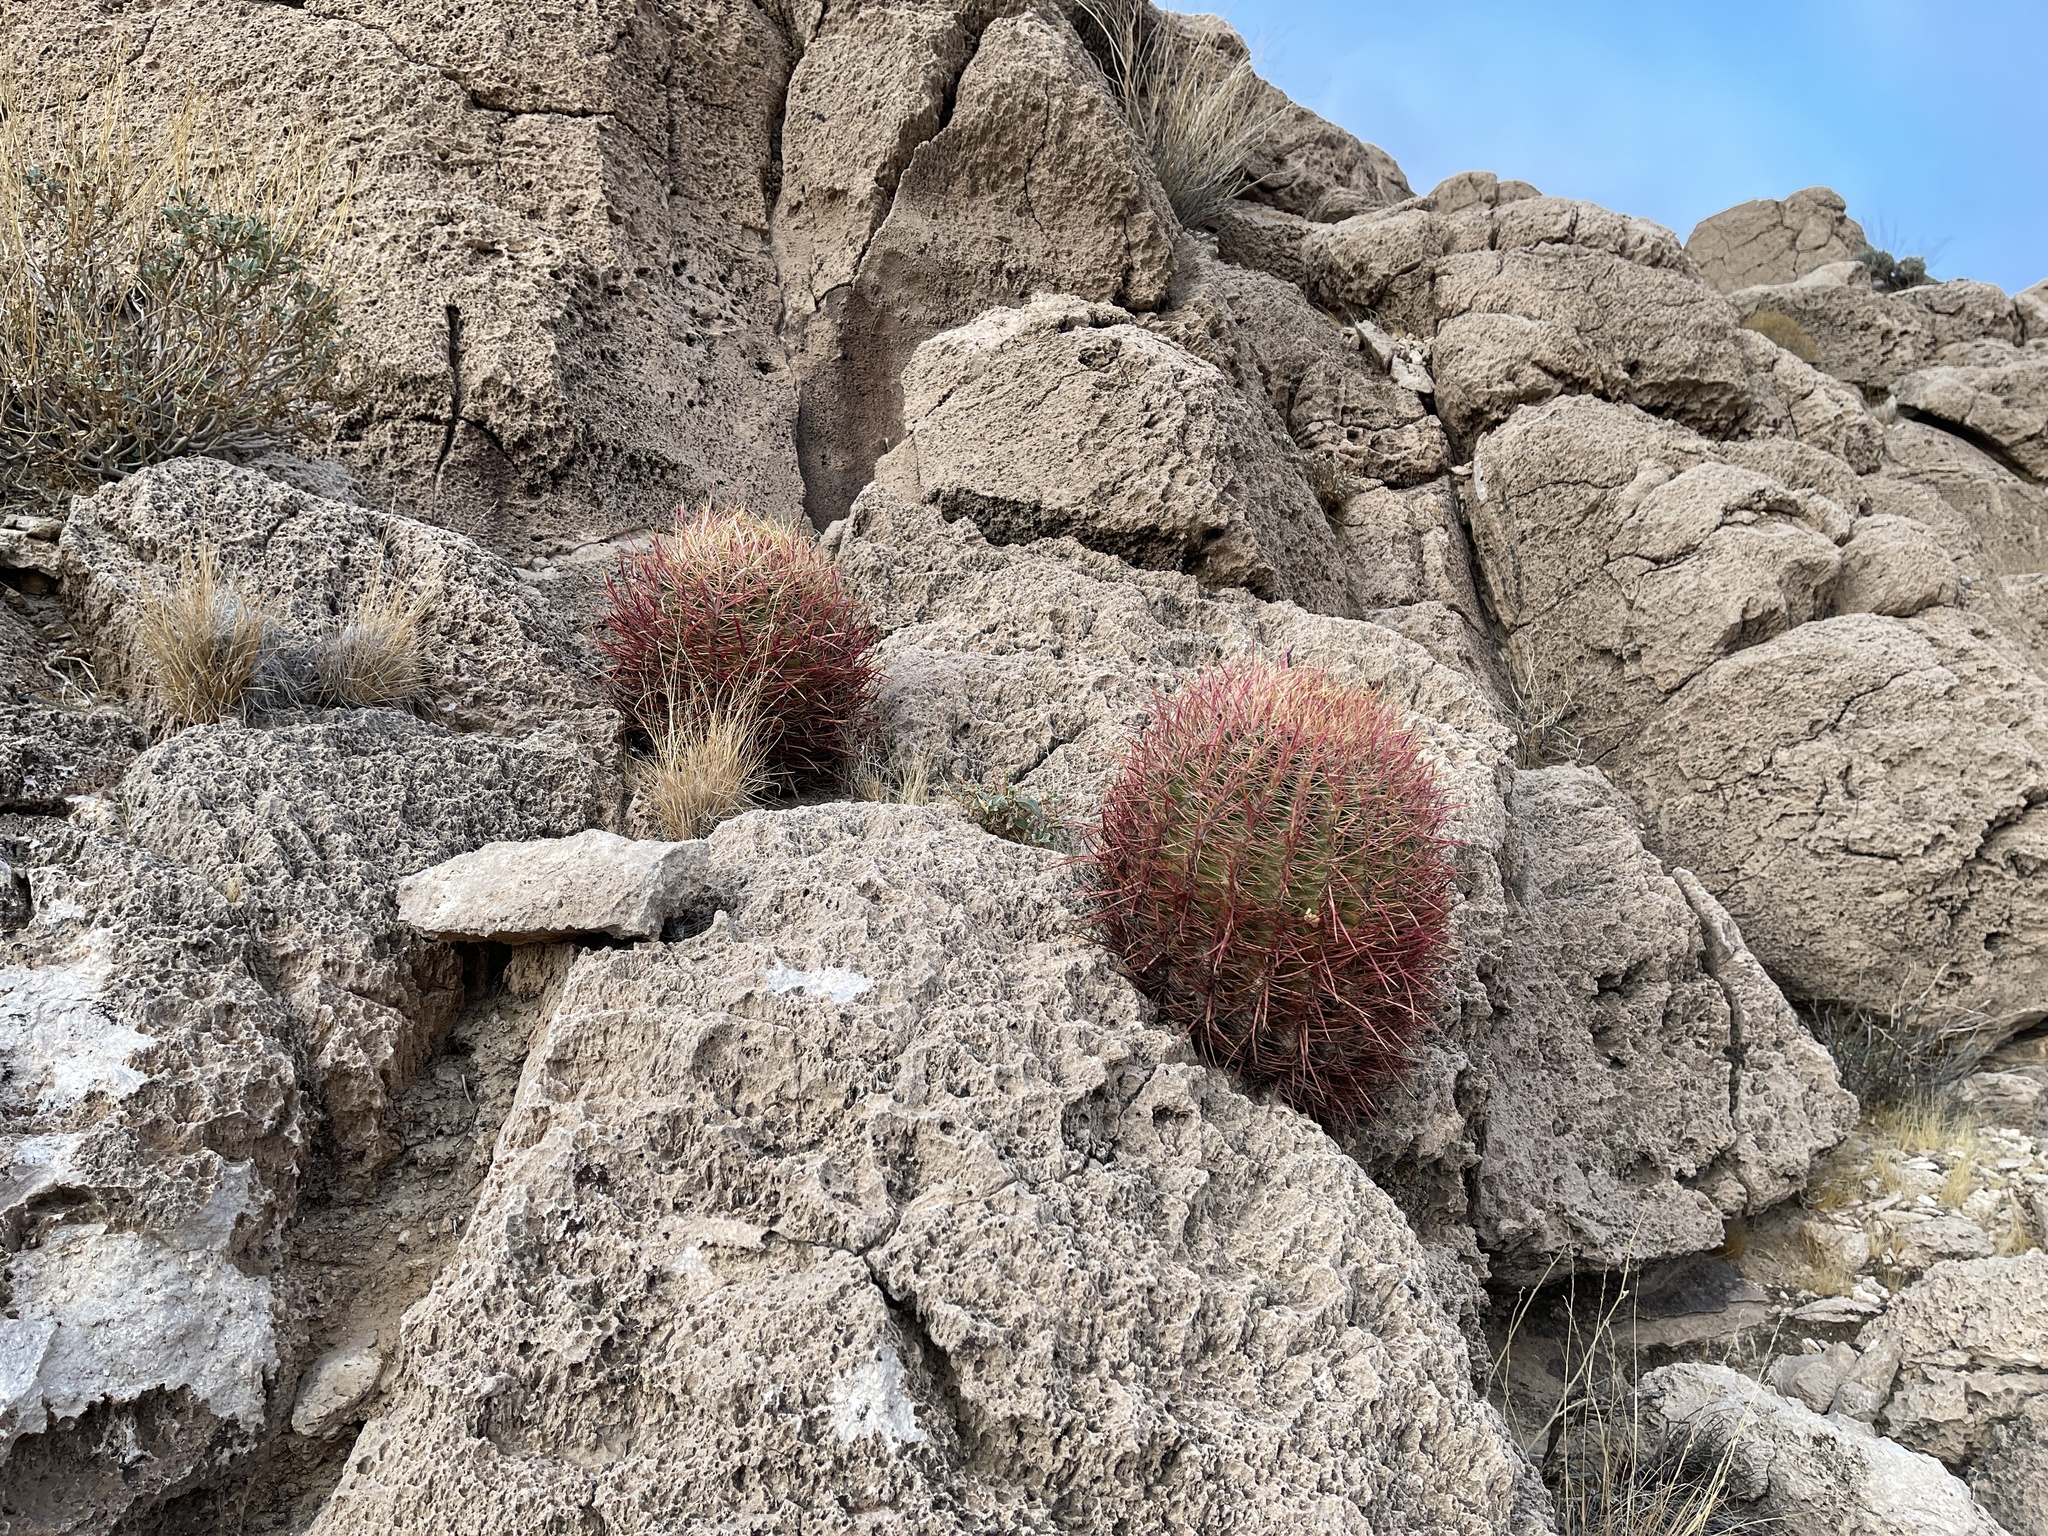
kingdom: Plantae
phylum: Tracheophyta
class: Magnoliopsida
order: Caryophyllales
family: Cactaceae
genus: Ferocactus
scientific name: Ferocactus cylindraceus
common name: California barrel cactus
